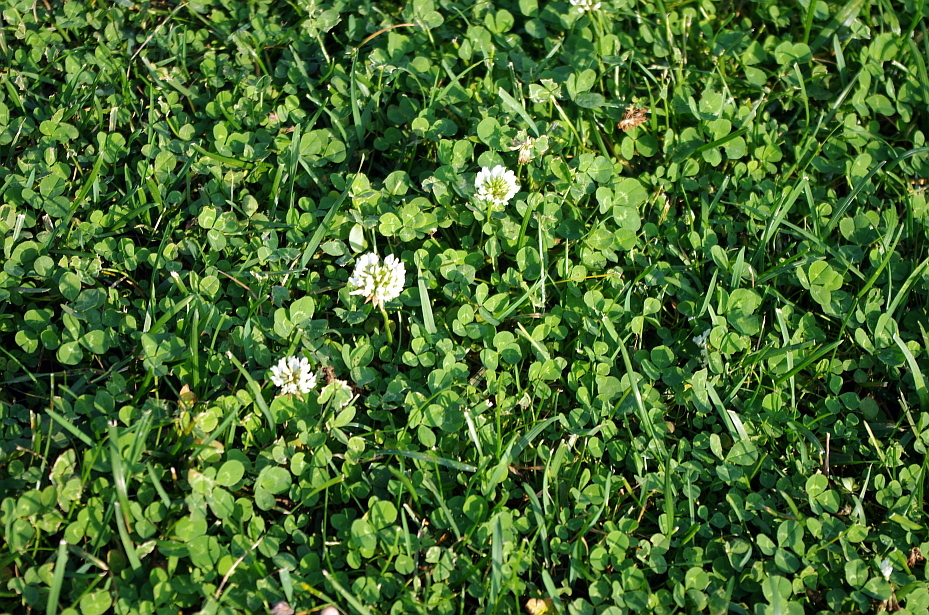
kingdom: Plantae
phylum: Tracheophyta
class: Magnoliopsida
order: Fabales
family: Fabaceae
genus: Trifolium
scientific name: Trifolium repens
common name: White clover
